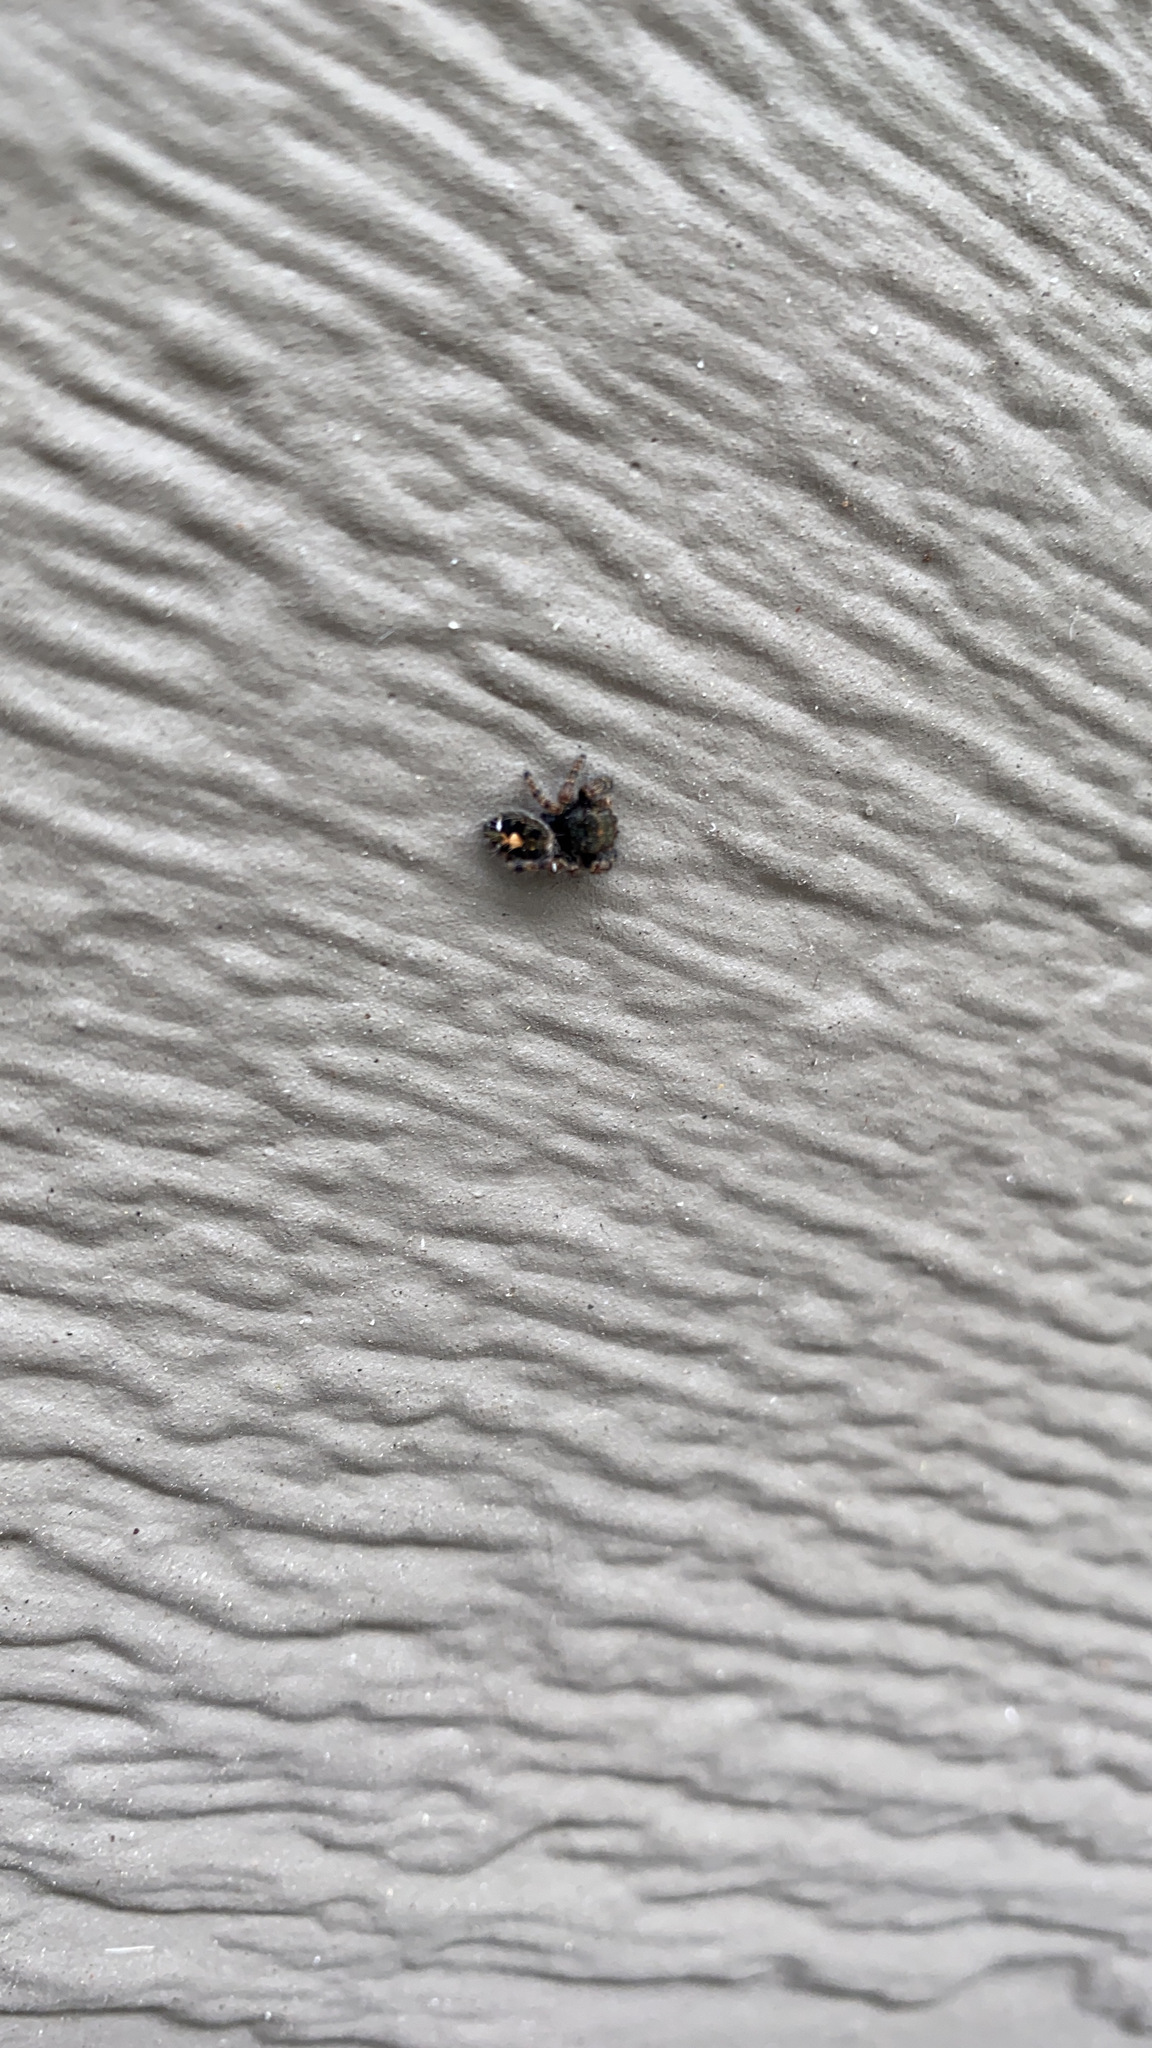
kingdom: Animalia
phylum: Arthropoda
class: Arachnida
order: Araneae
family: Salticidae
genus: Phidippus
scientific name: Phidippus audax
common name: Bold jumper
